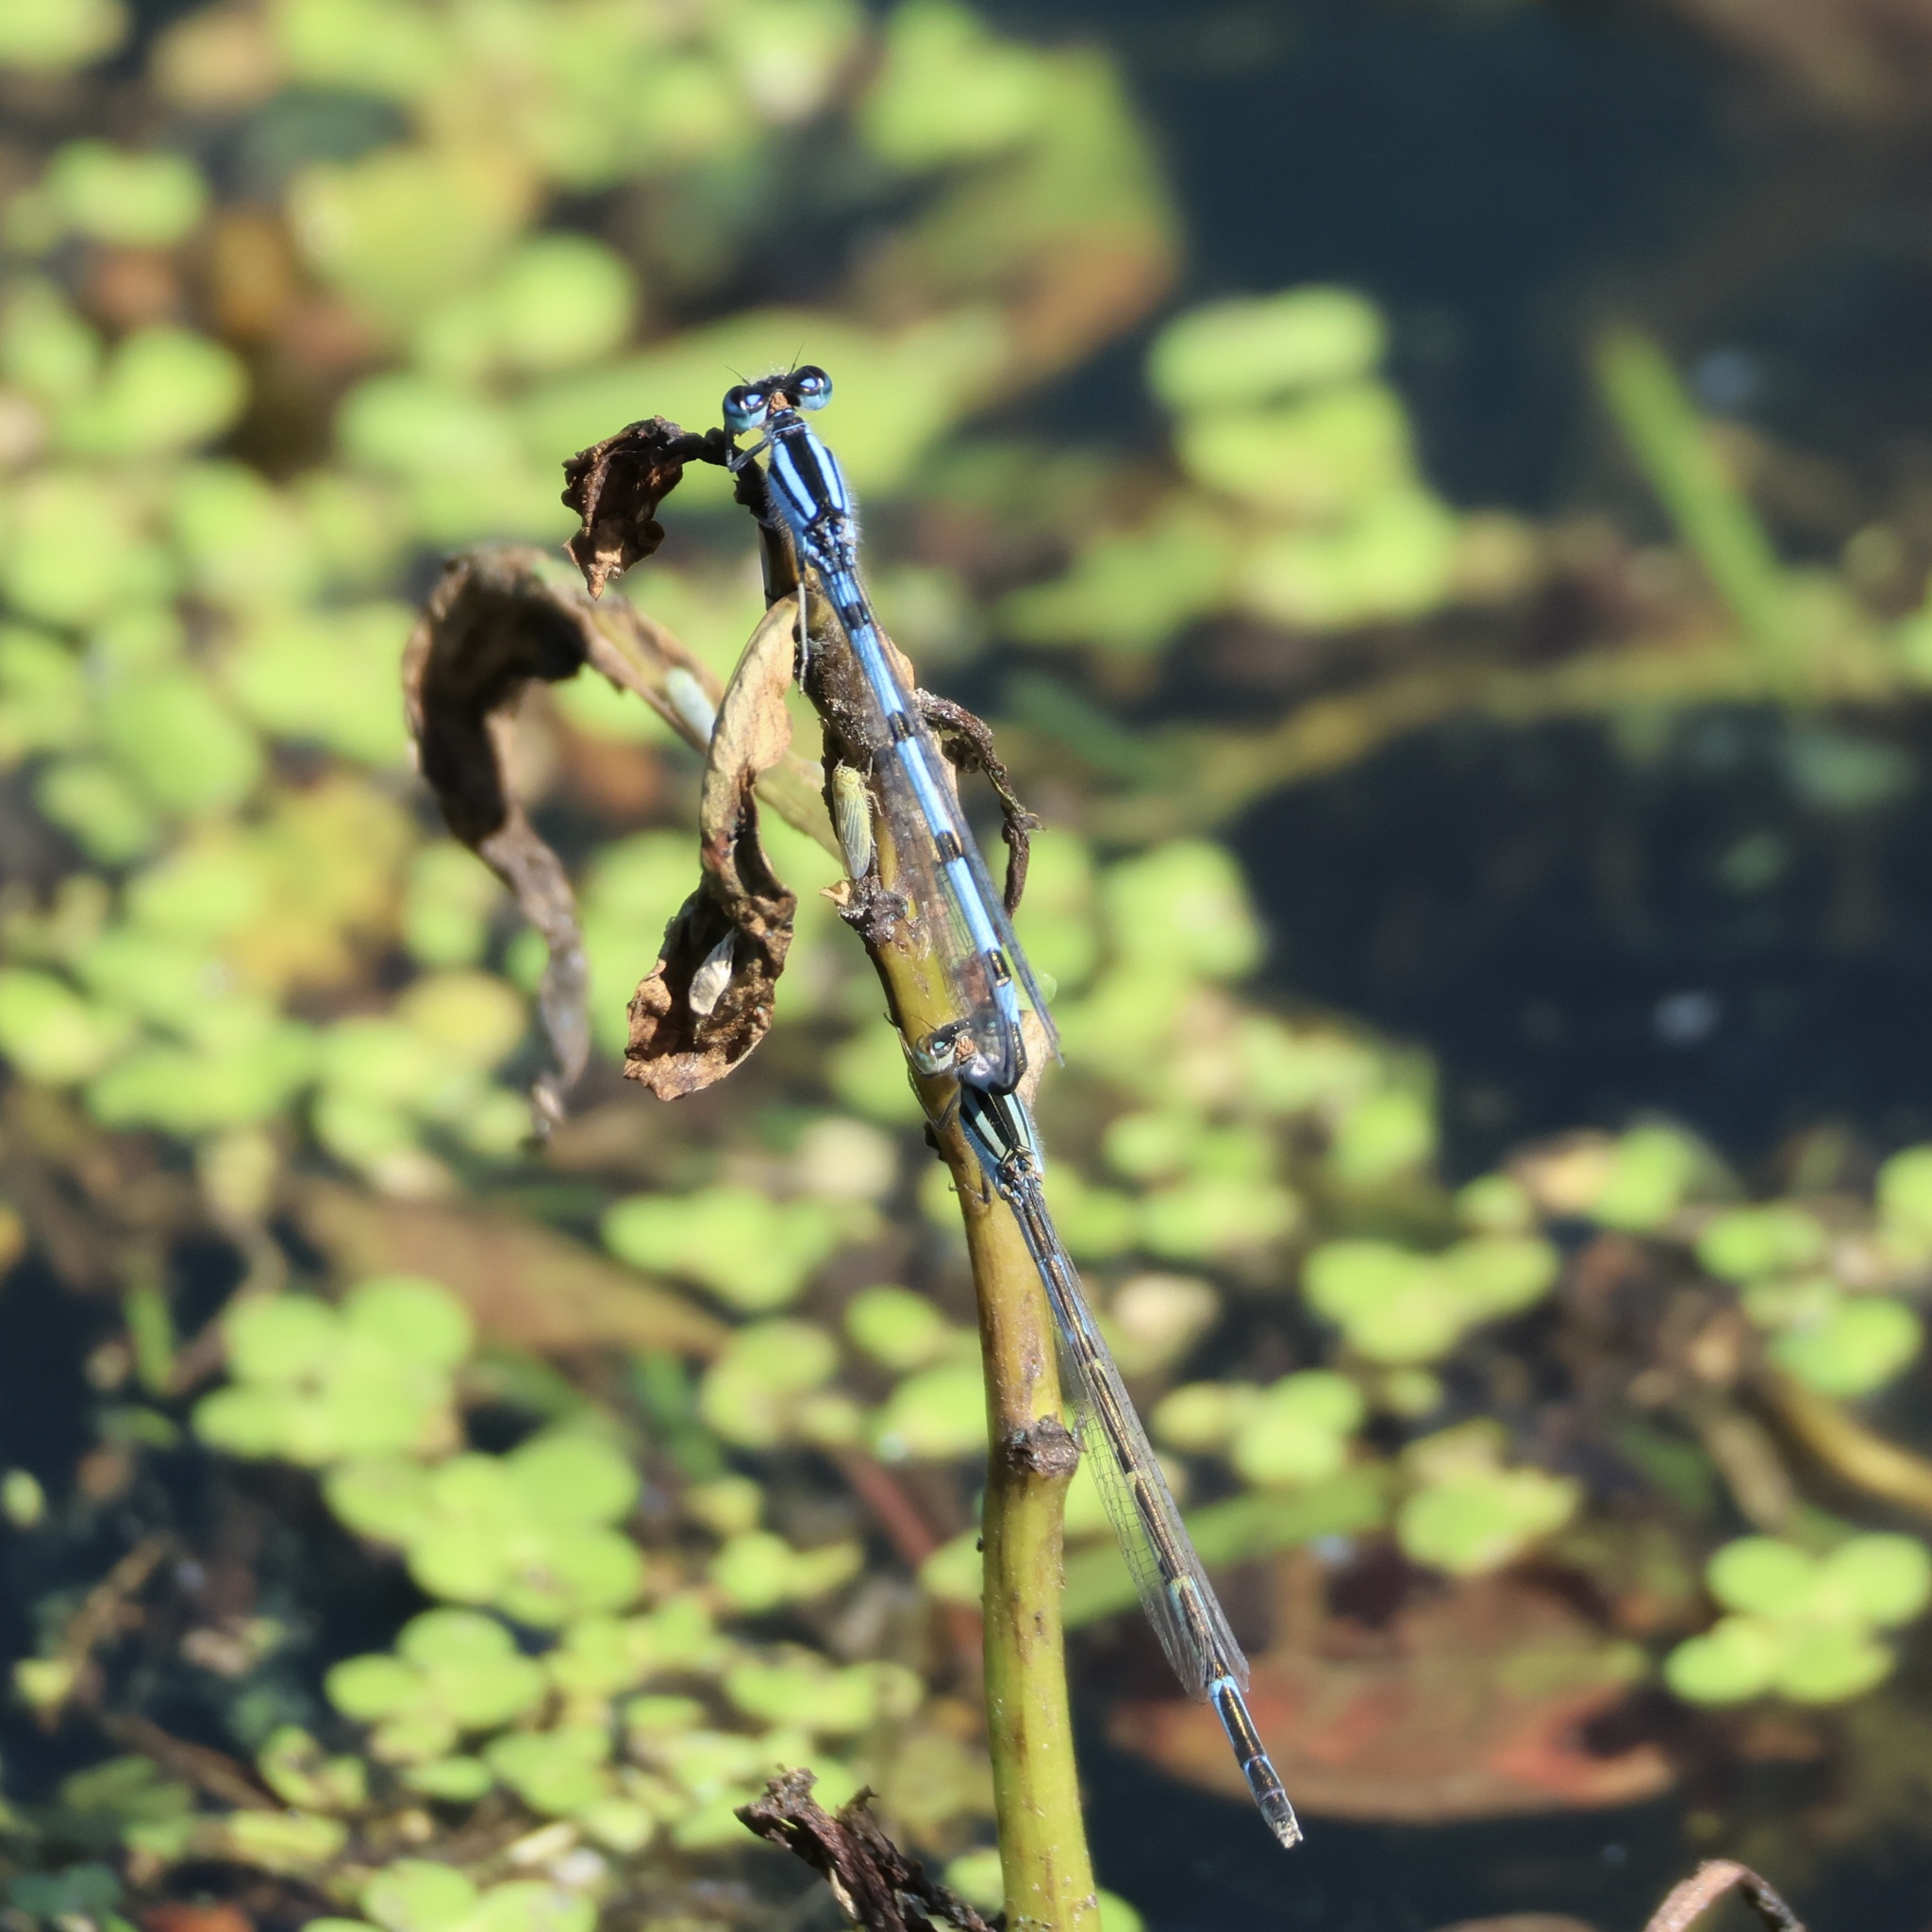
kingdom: Animalia
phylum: Arthropoda
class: Insecta
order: Odonata
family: Coenagrionidae
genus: Enallagma
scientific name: Enallagma civile
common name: Damselfly
